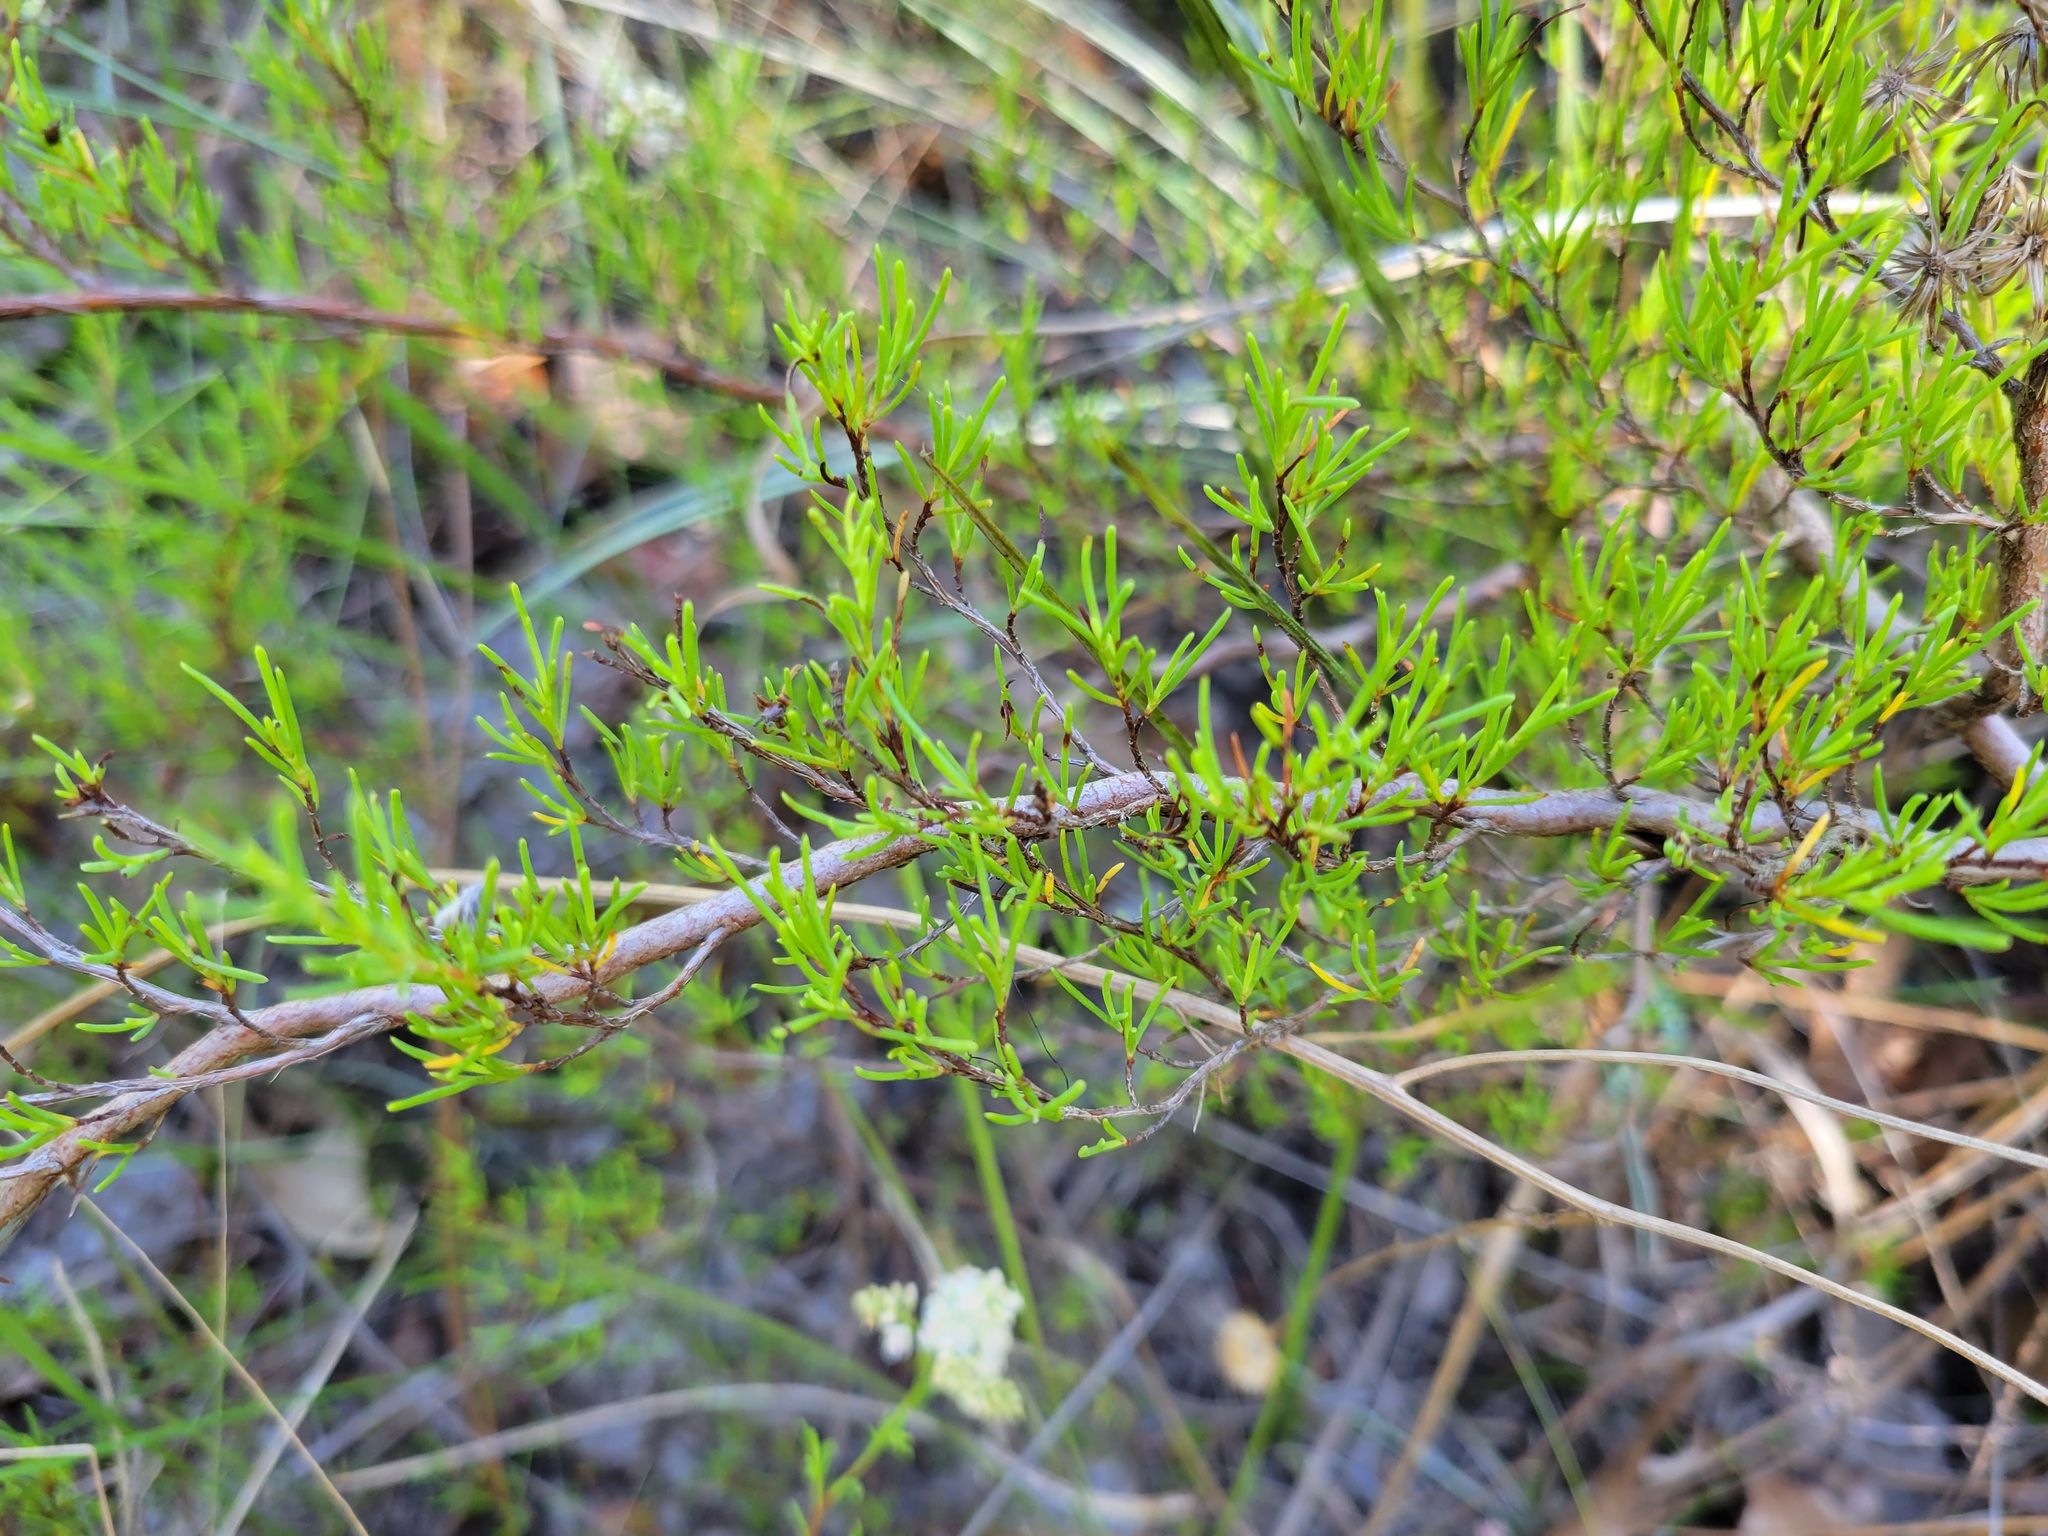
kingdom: Plantae
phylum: Tracheophyta
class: Magnoliopsida
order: Caryophyllales
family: Polygonaceae
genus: Polygonella
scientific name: Polygonella myriophylla
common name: Sandlace
